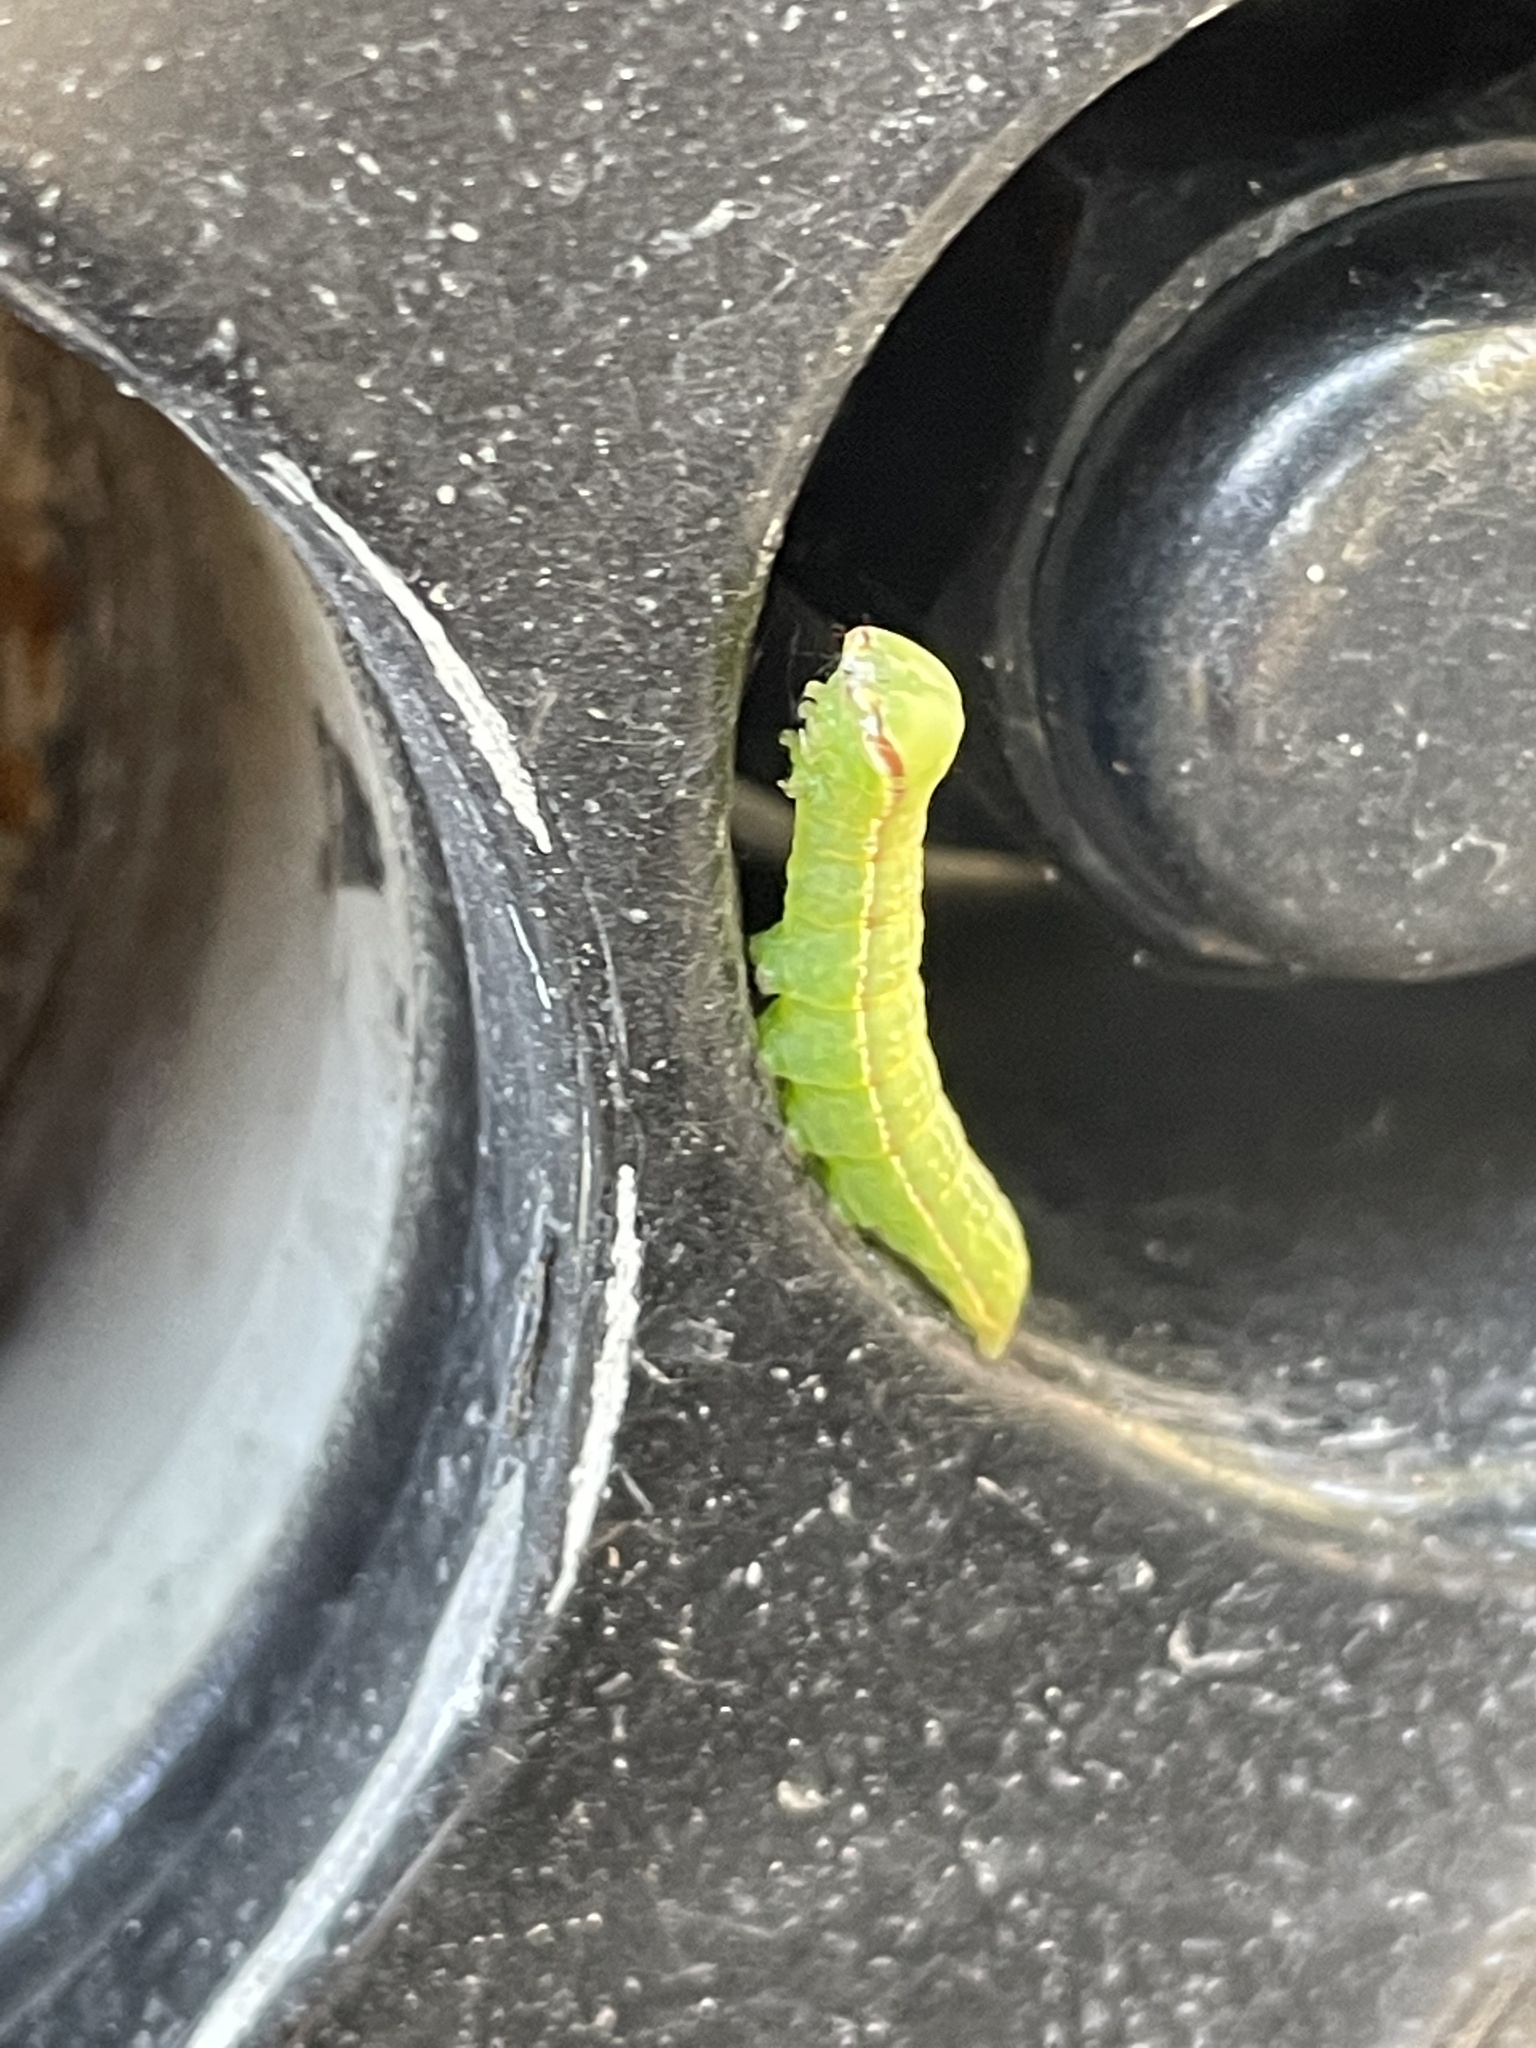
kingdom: Animalia
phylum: Arthropoda
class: Insecta
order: Lepidoptera
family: Notodontidae
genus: Peridea
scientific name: Peridea angulosa
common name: Angulose prominent
